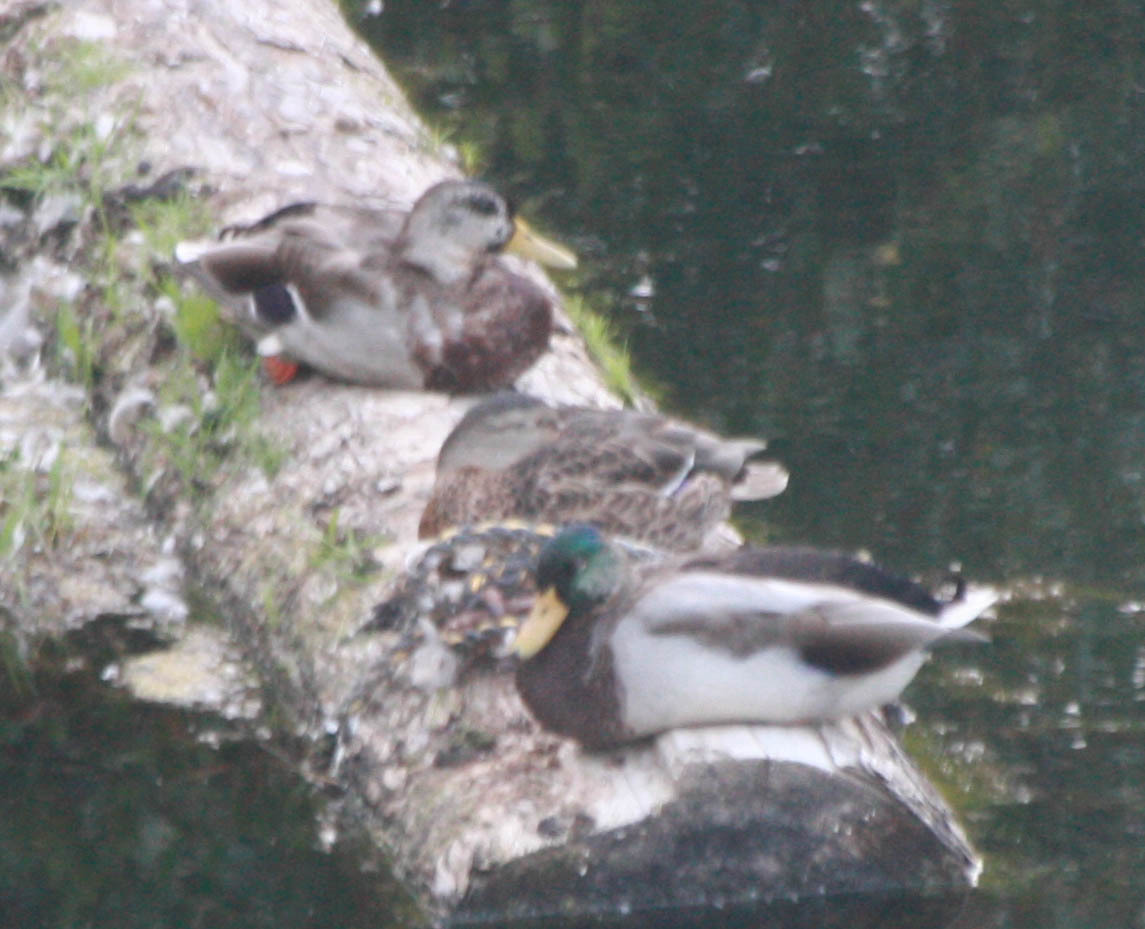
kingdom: Animalia
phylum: Chordata
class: Aves
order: Anseriformes
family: Anatidae
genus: Anas
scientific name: Anas platyrhynchos
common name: Mallard
